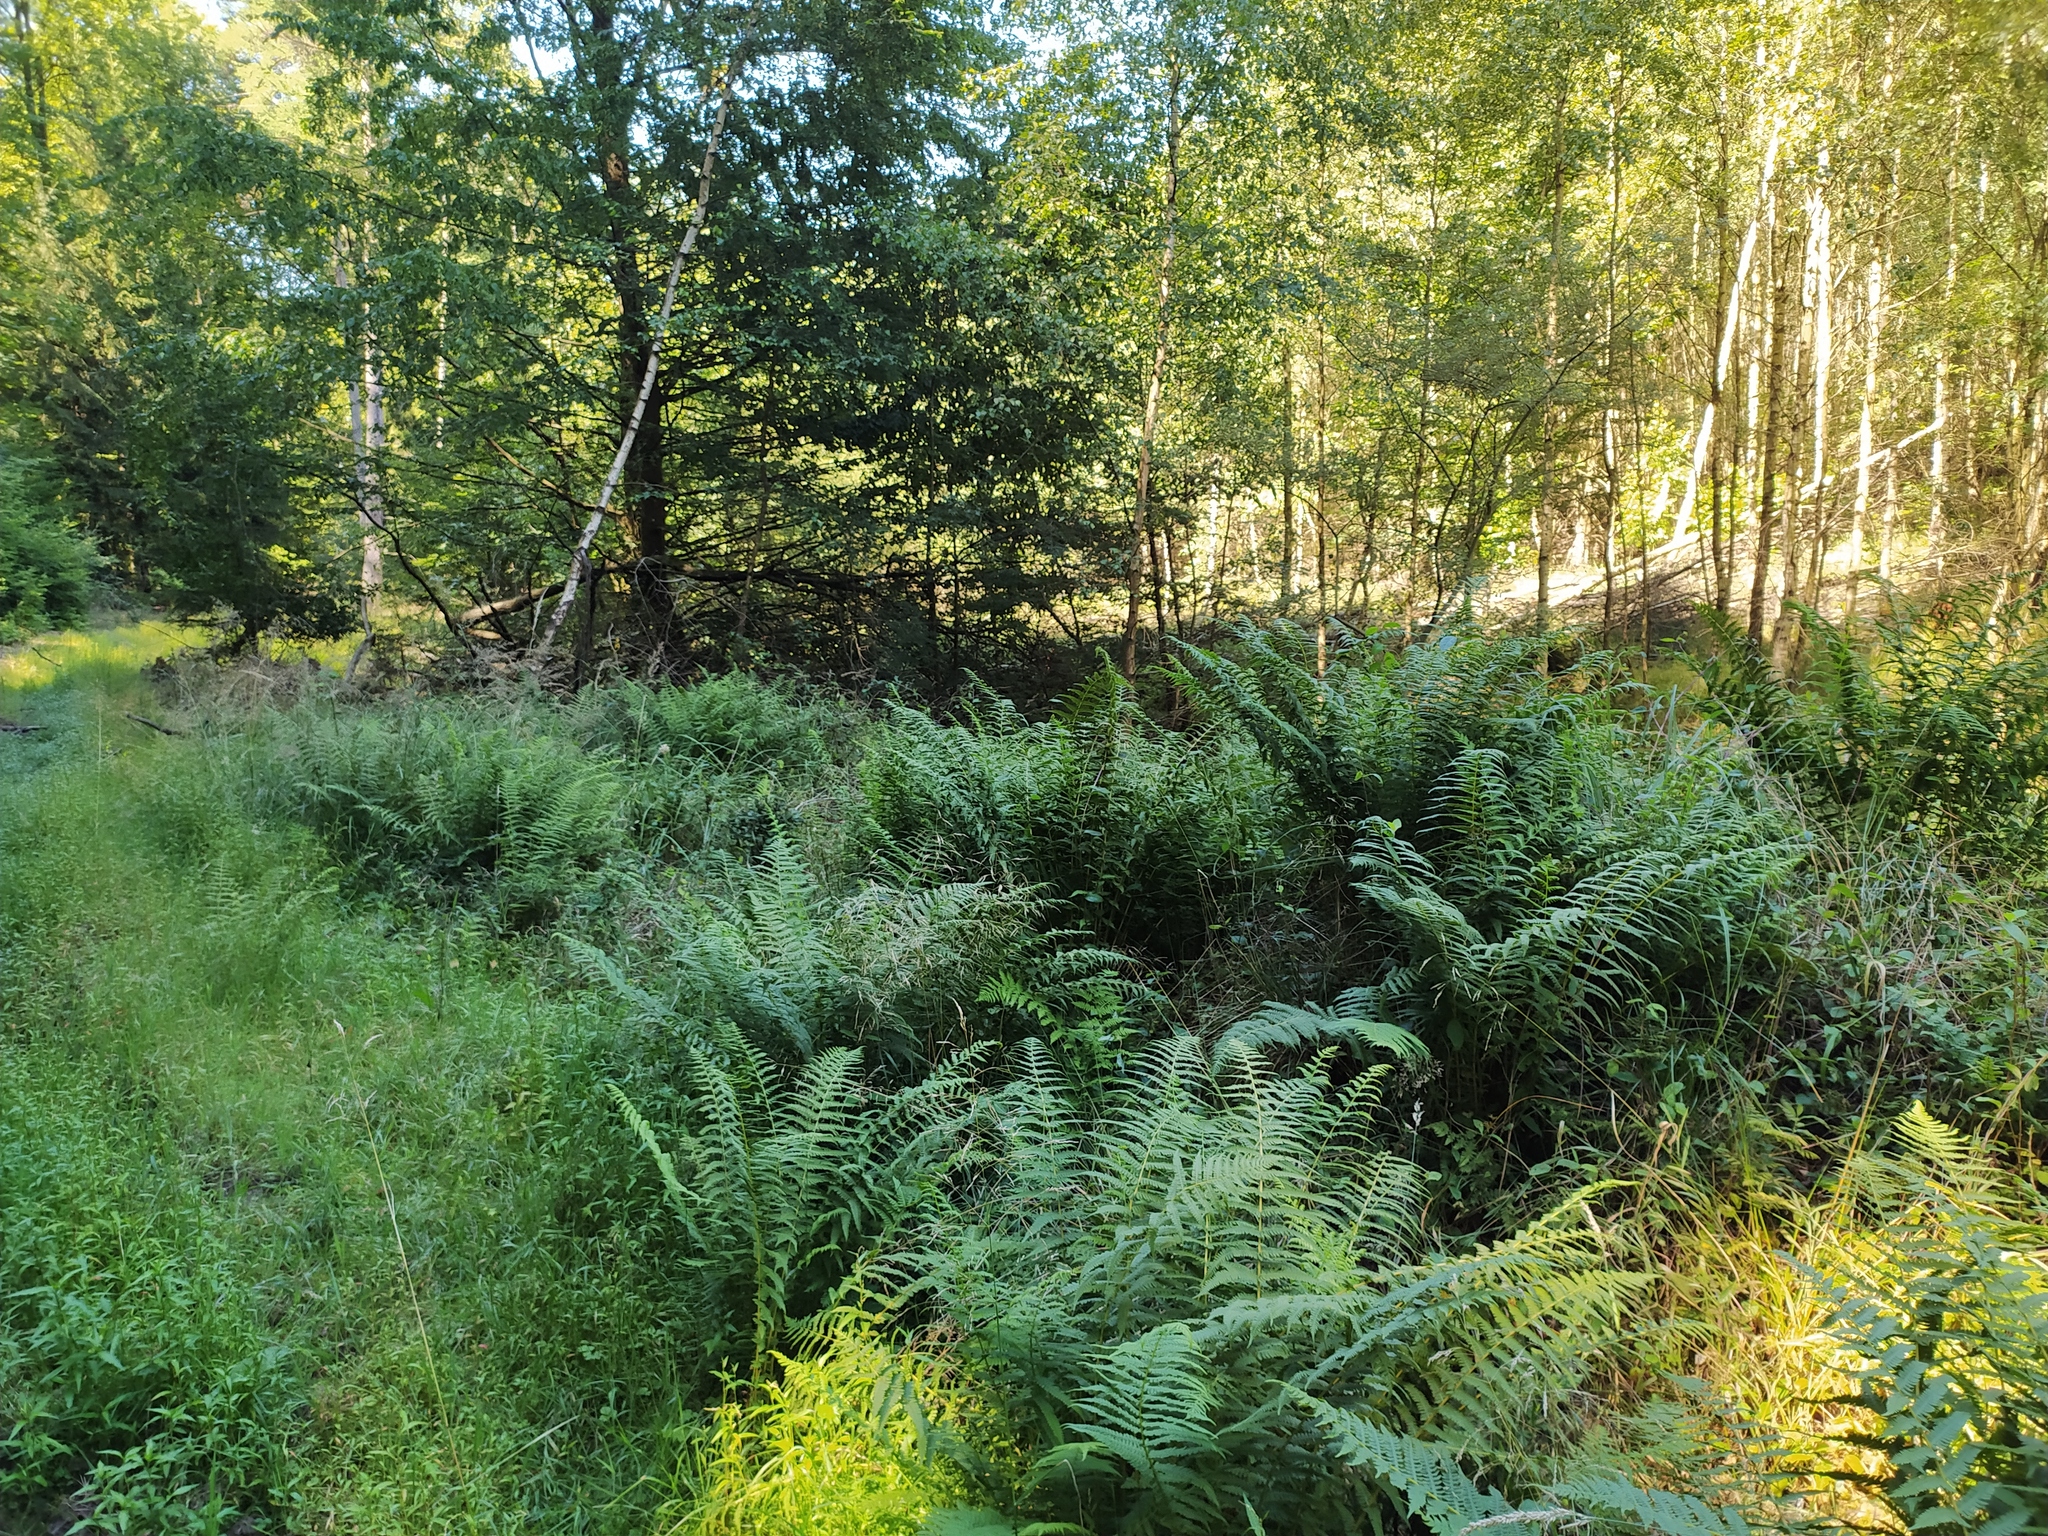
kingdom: Plantae
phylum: Tracheophyta
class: Polypodiopsida
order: Polypodiales
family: Thelypteridaceae
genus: Oreopteris
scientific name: Oreopteris limbosperma
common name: Lemon-scented fern
